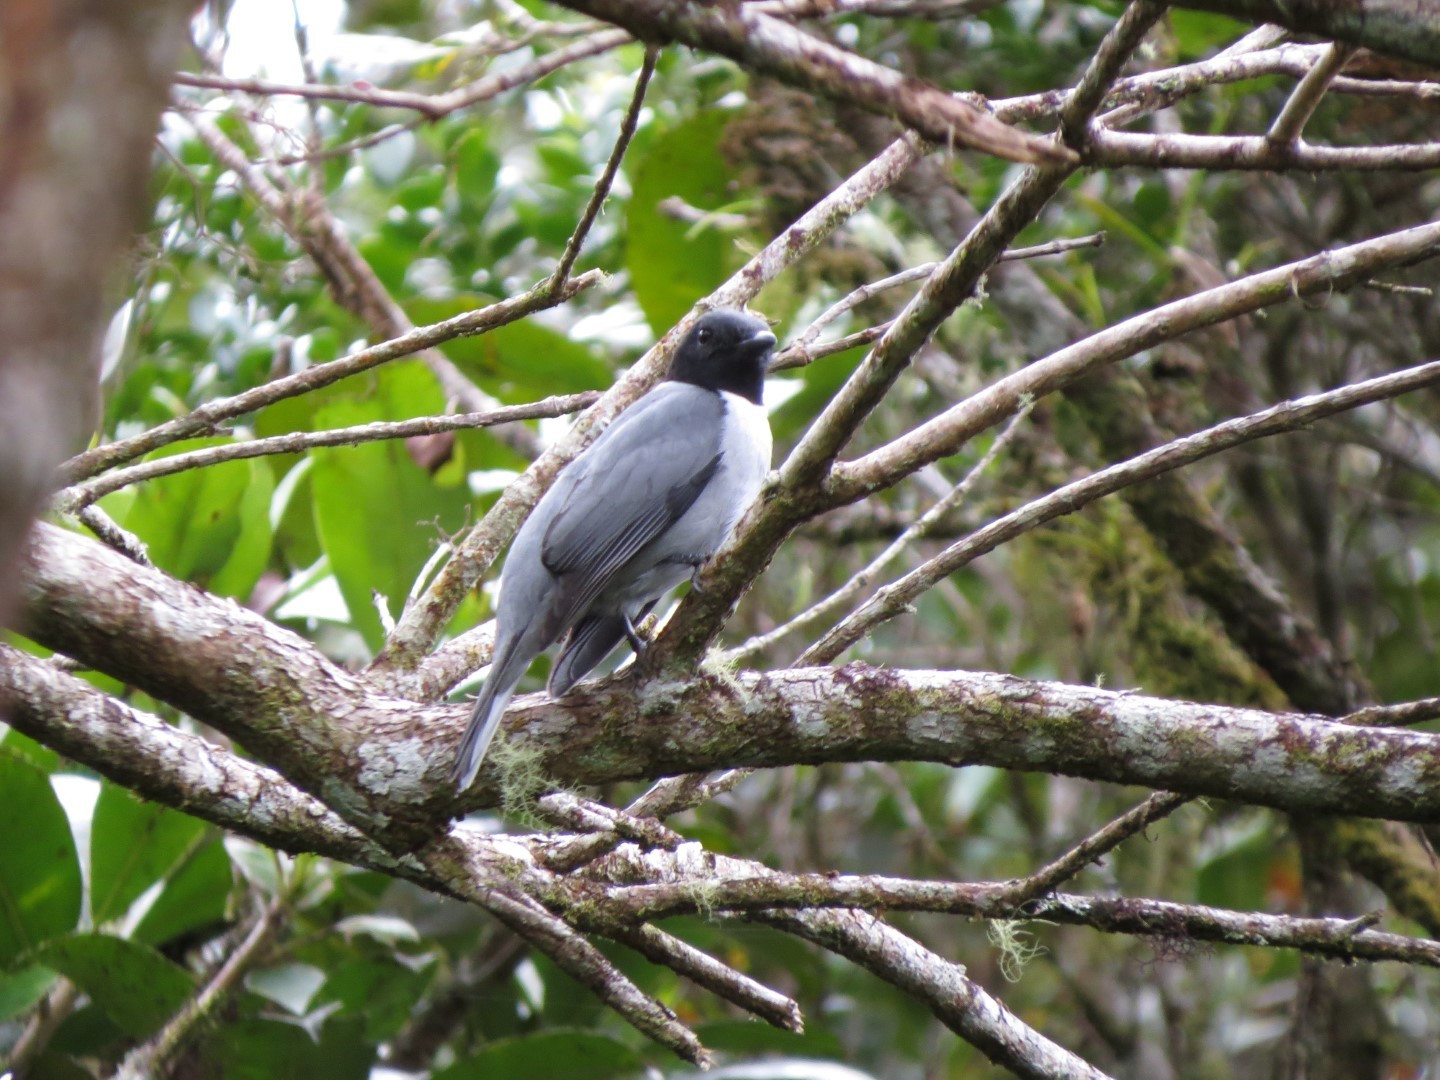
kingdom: Animalia
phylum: Chordata
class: Aves
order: Passeriformes
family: Campephagidae
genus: Coracina
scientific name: Coracina cinerea
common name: Madagascan cuckooshrike
